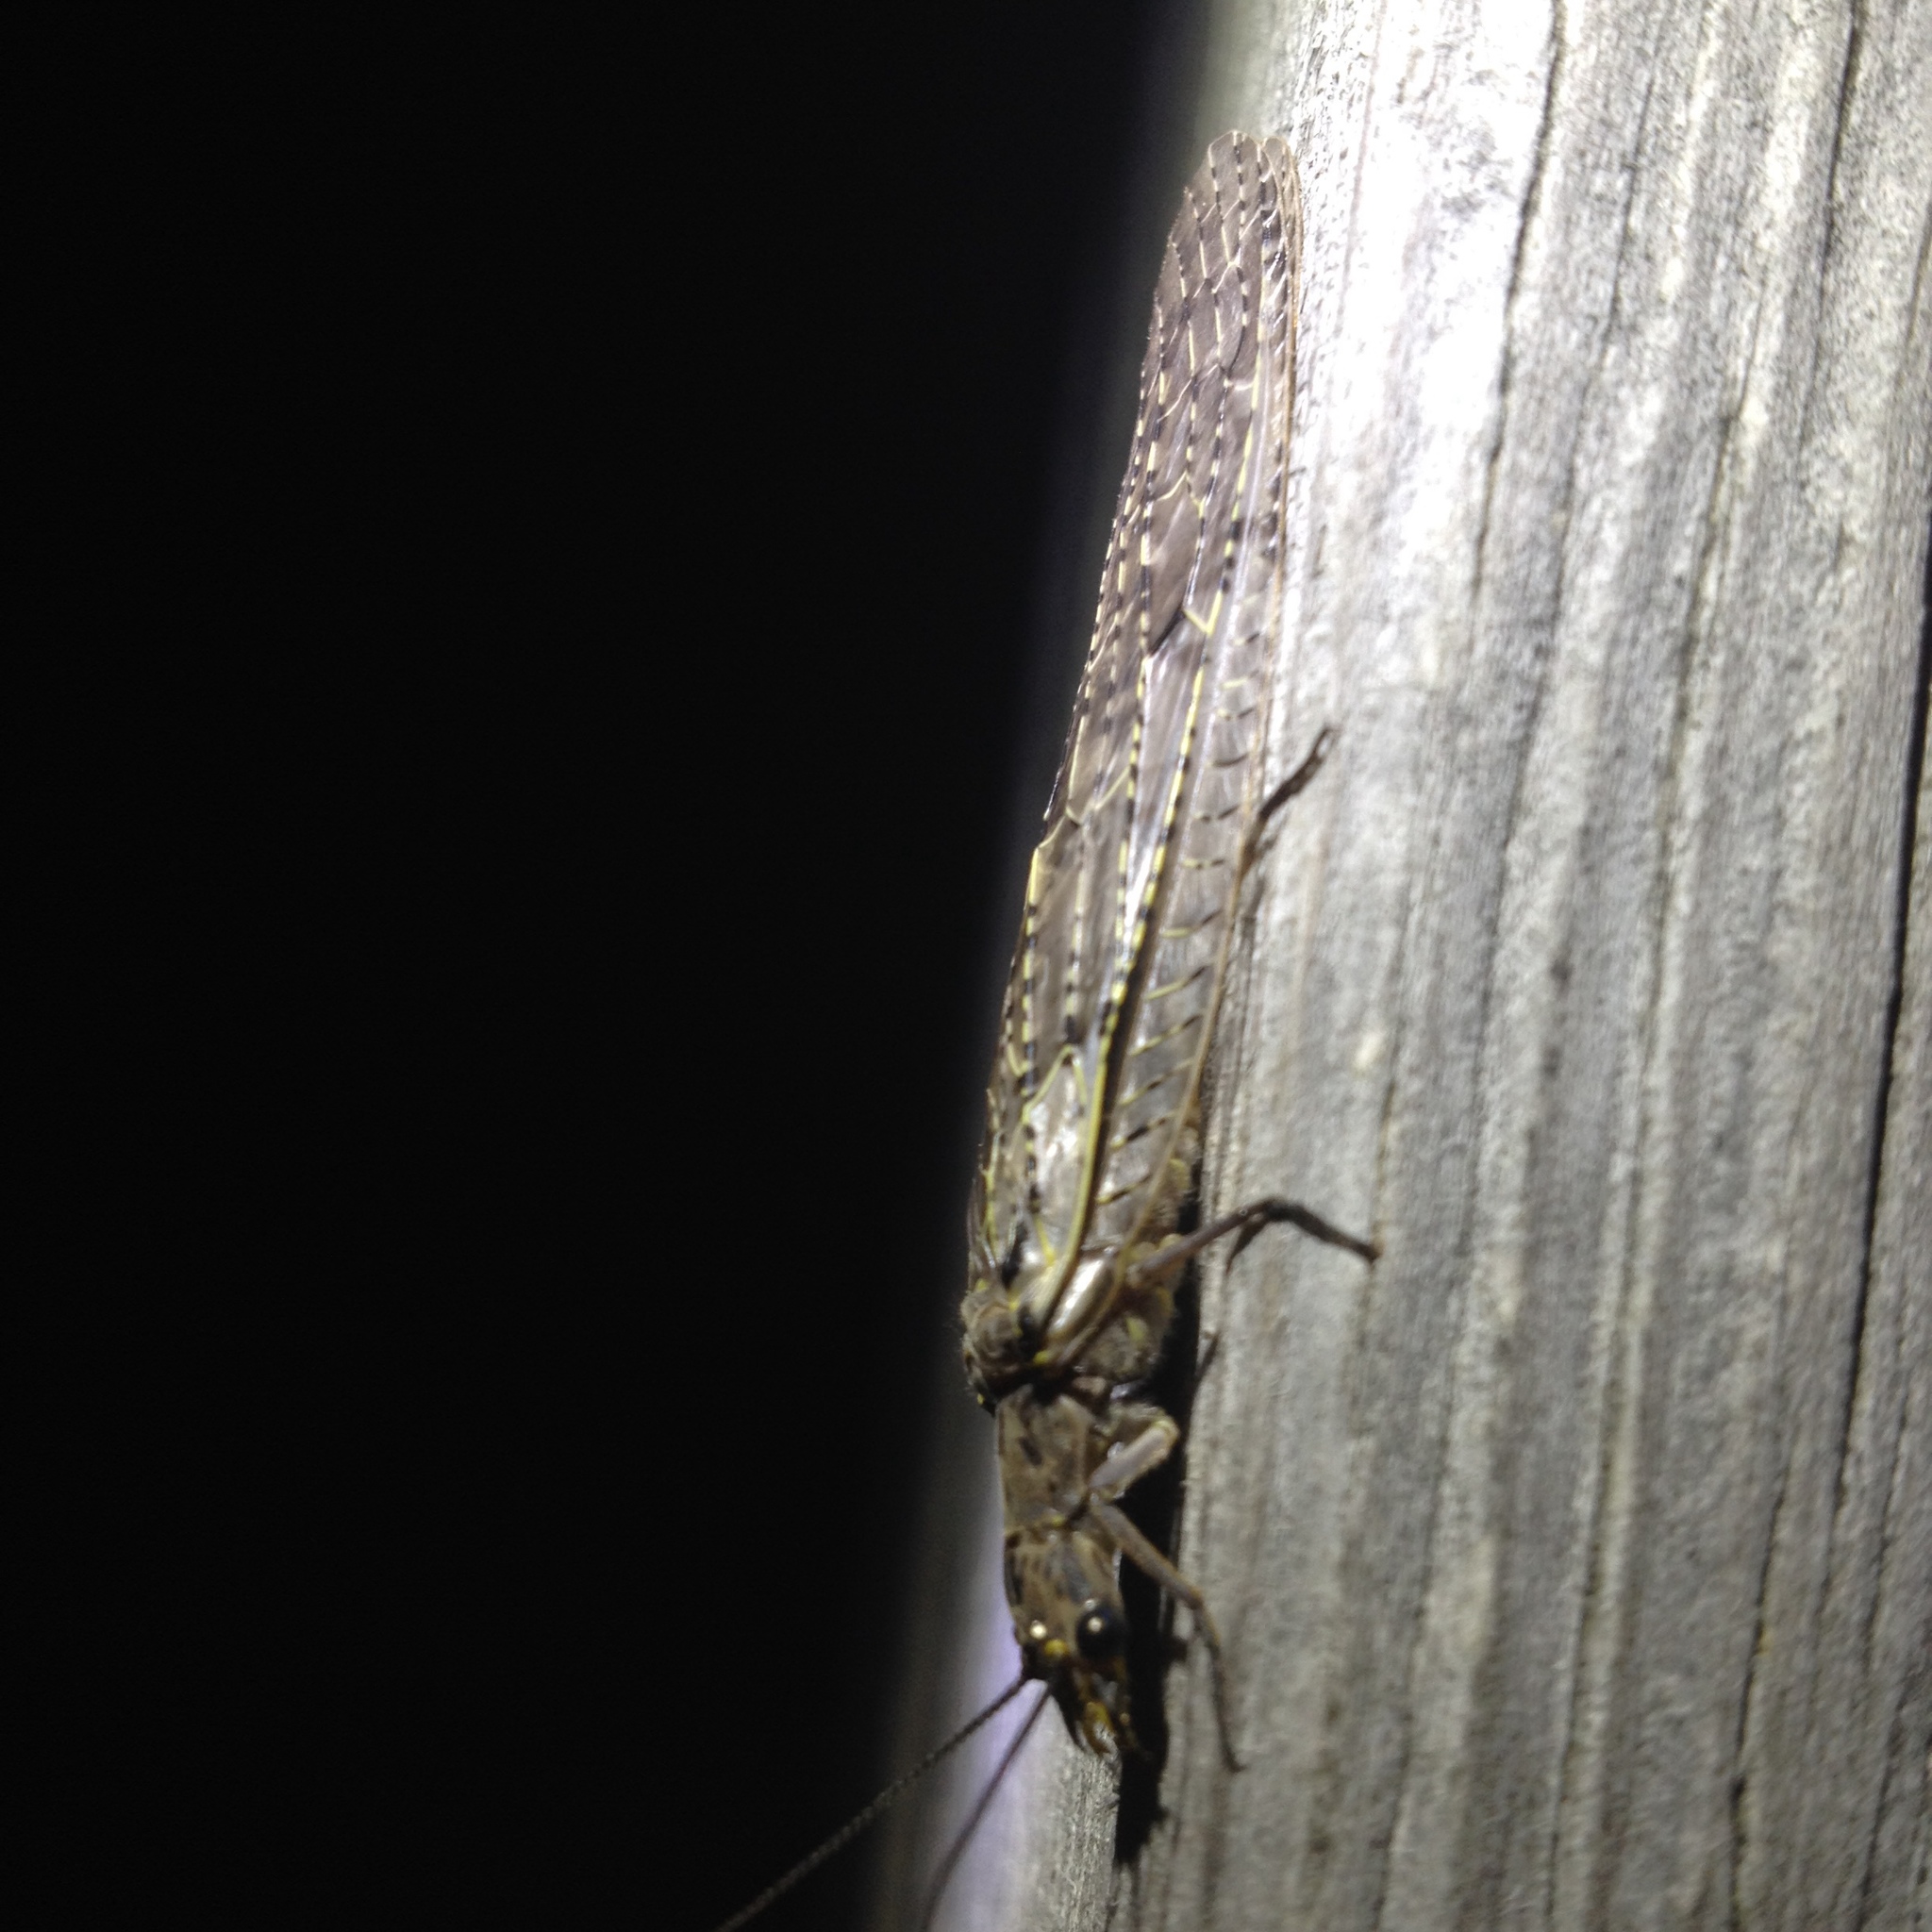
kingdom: Animalia
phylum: Arthropoda
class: Insecta
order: Megaloptera
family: Corydalidae
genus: Chauliodes
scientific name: Chauliodes rastricornis
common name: Spring fishfly
